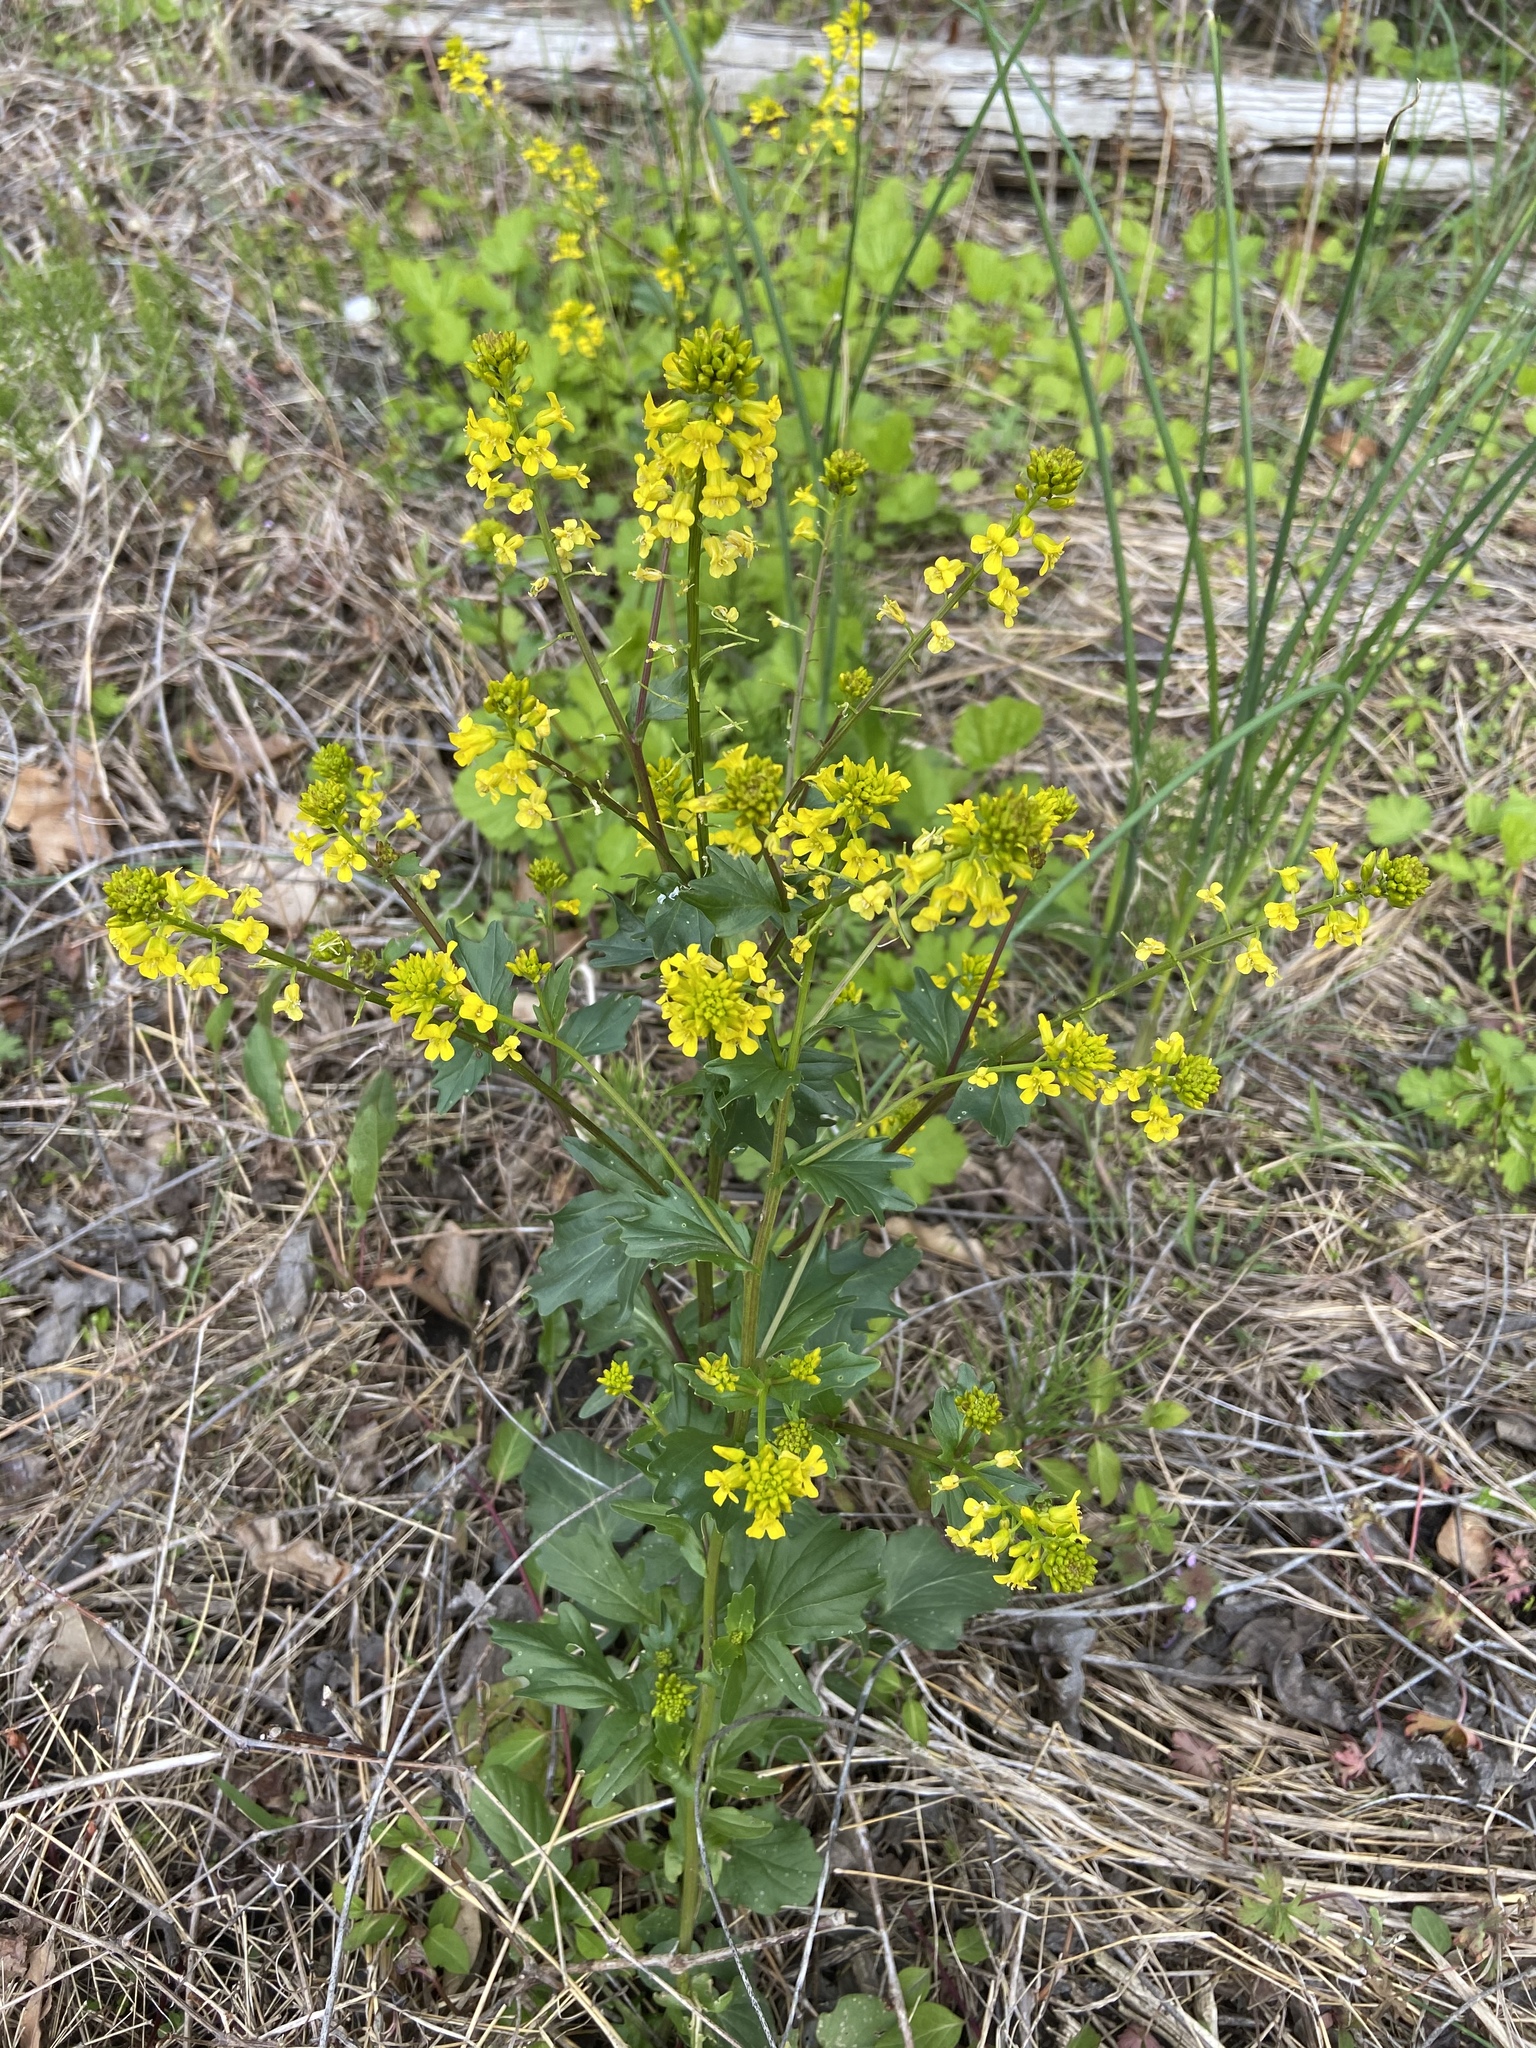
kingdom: Plantae
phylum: Tracheophyta
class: Magnoliopsida
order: Brassicales
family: Brassicaceae
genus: Barbarea
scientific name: Barbarea vulgaris
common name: Cressy-greens
